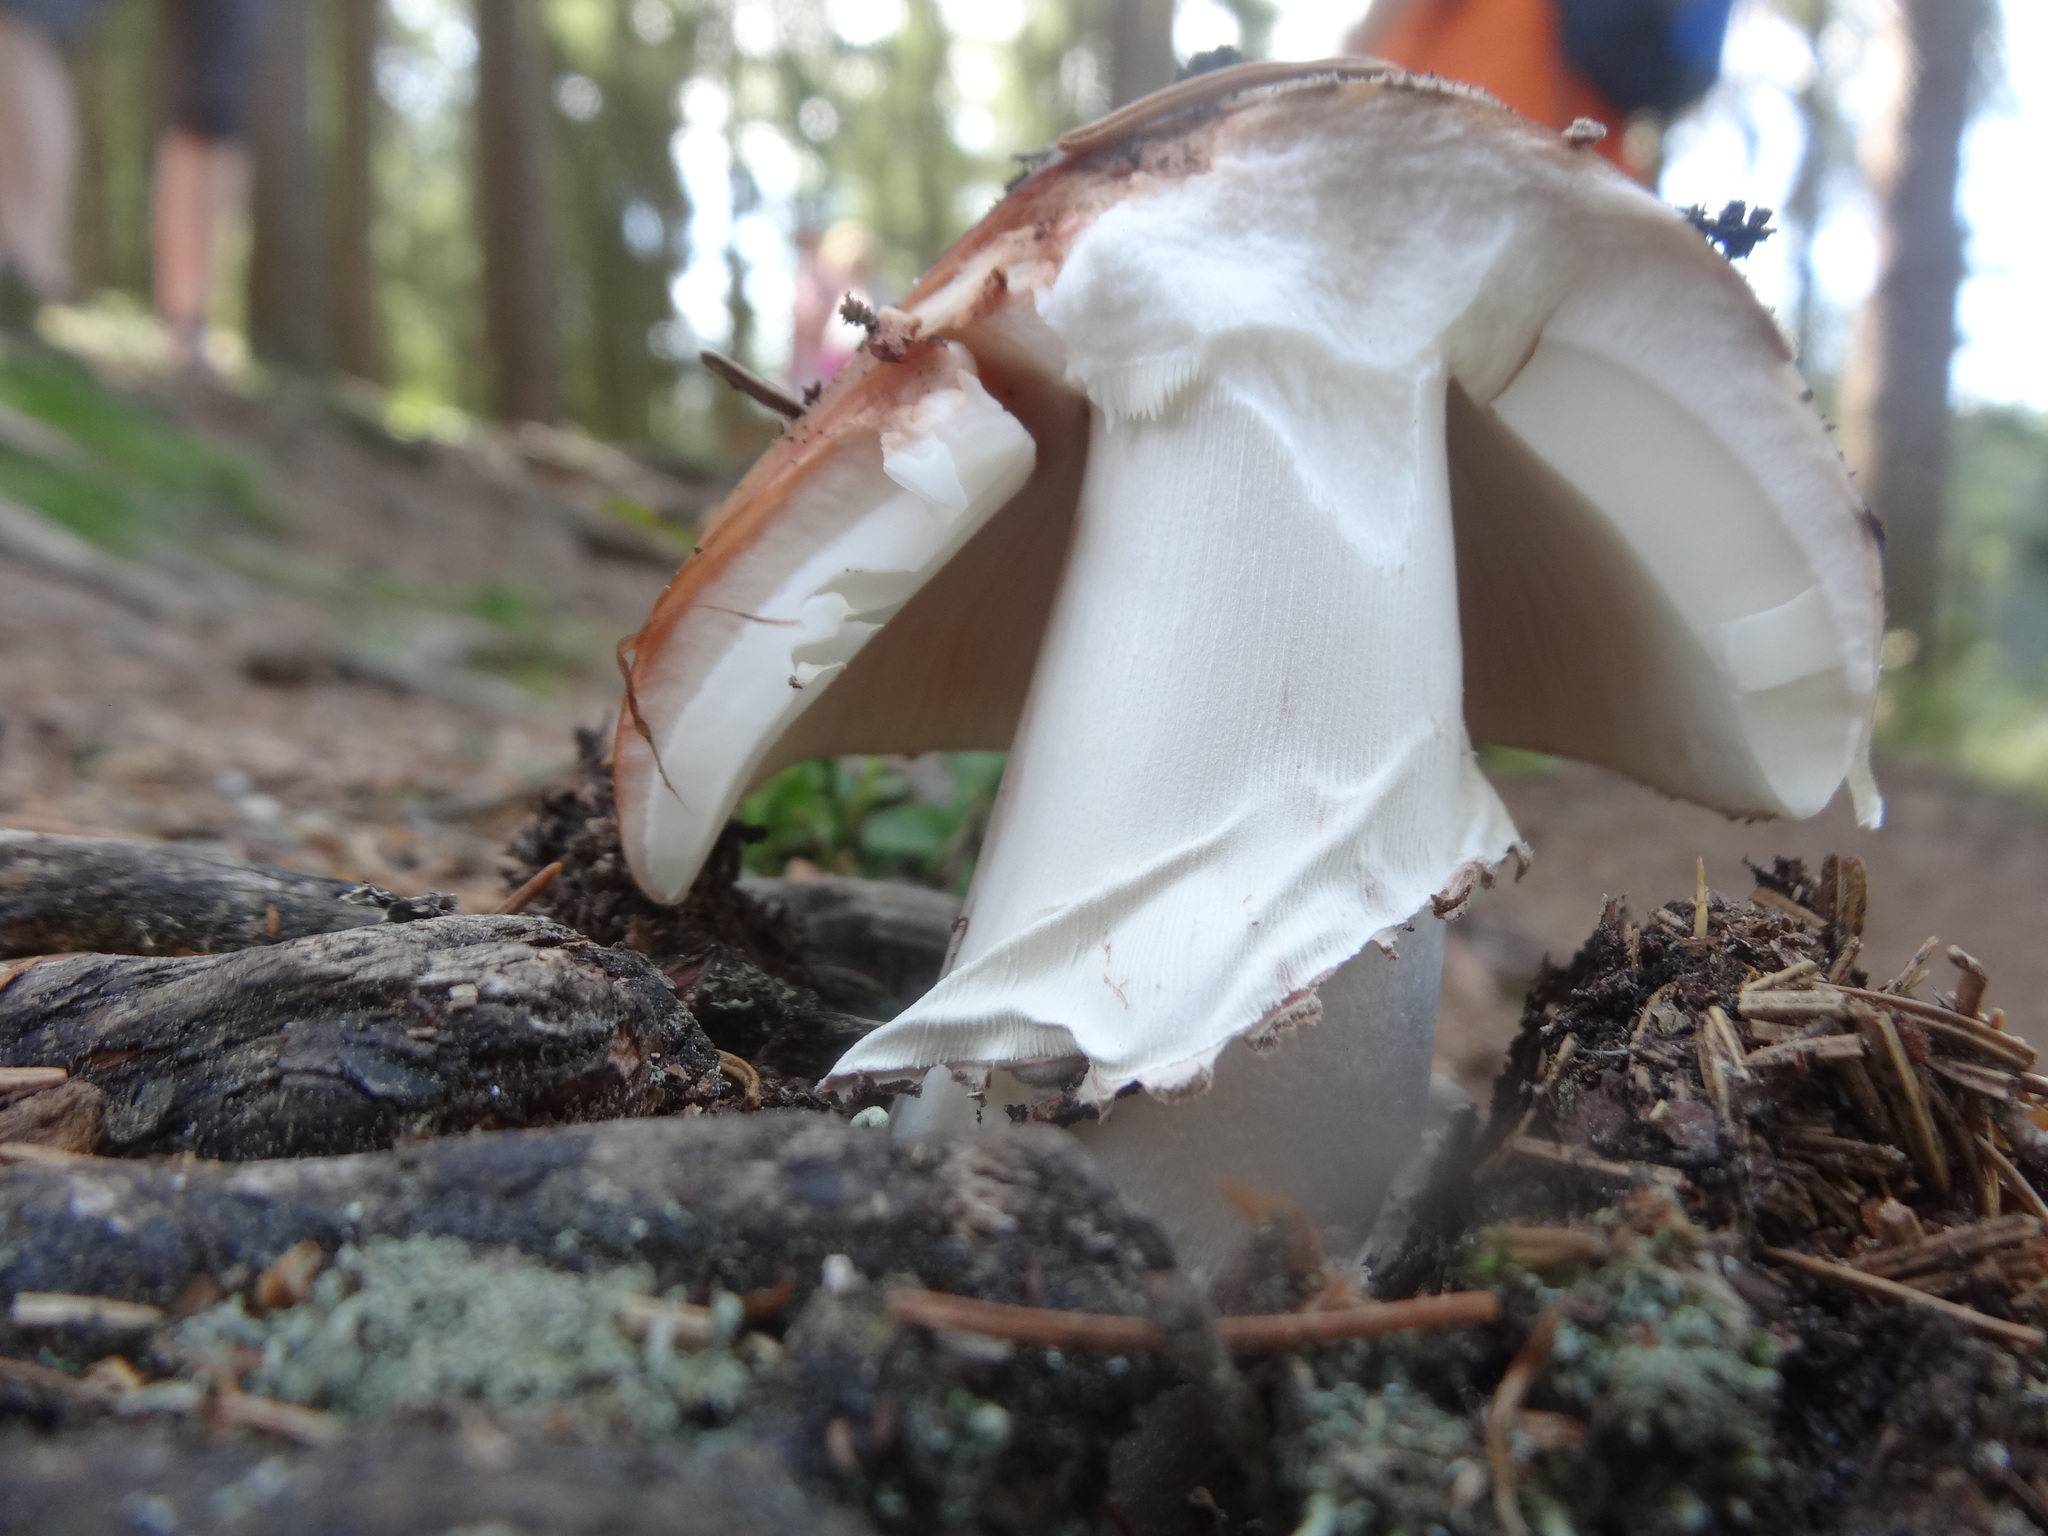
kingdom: Fungi
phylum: Basidiomycota
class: Agaricomycetes
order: Agaricales
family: Amanitaceae
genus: Amanita
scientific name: Amanita rubescens
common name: Blusher
